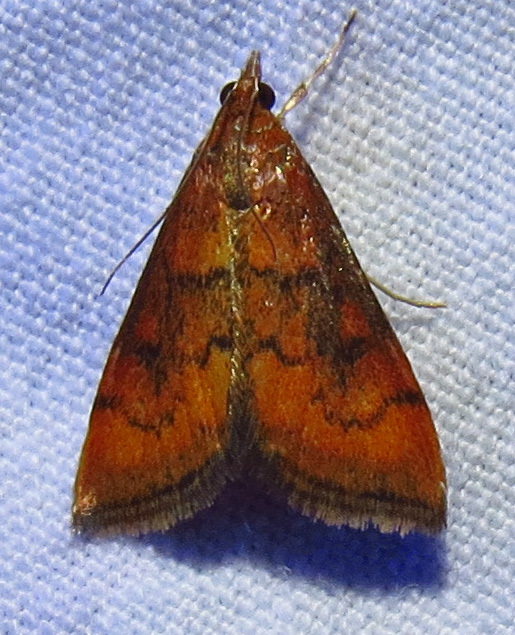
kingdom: Animalia
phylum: Arthropoda
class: Insecta
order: Lepidoptera
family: Crambidae
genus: Pyrausta
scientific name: Pyrausta rubricalis
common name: Variable reddish pyrausta
